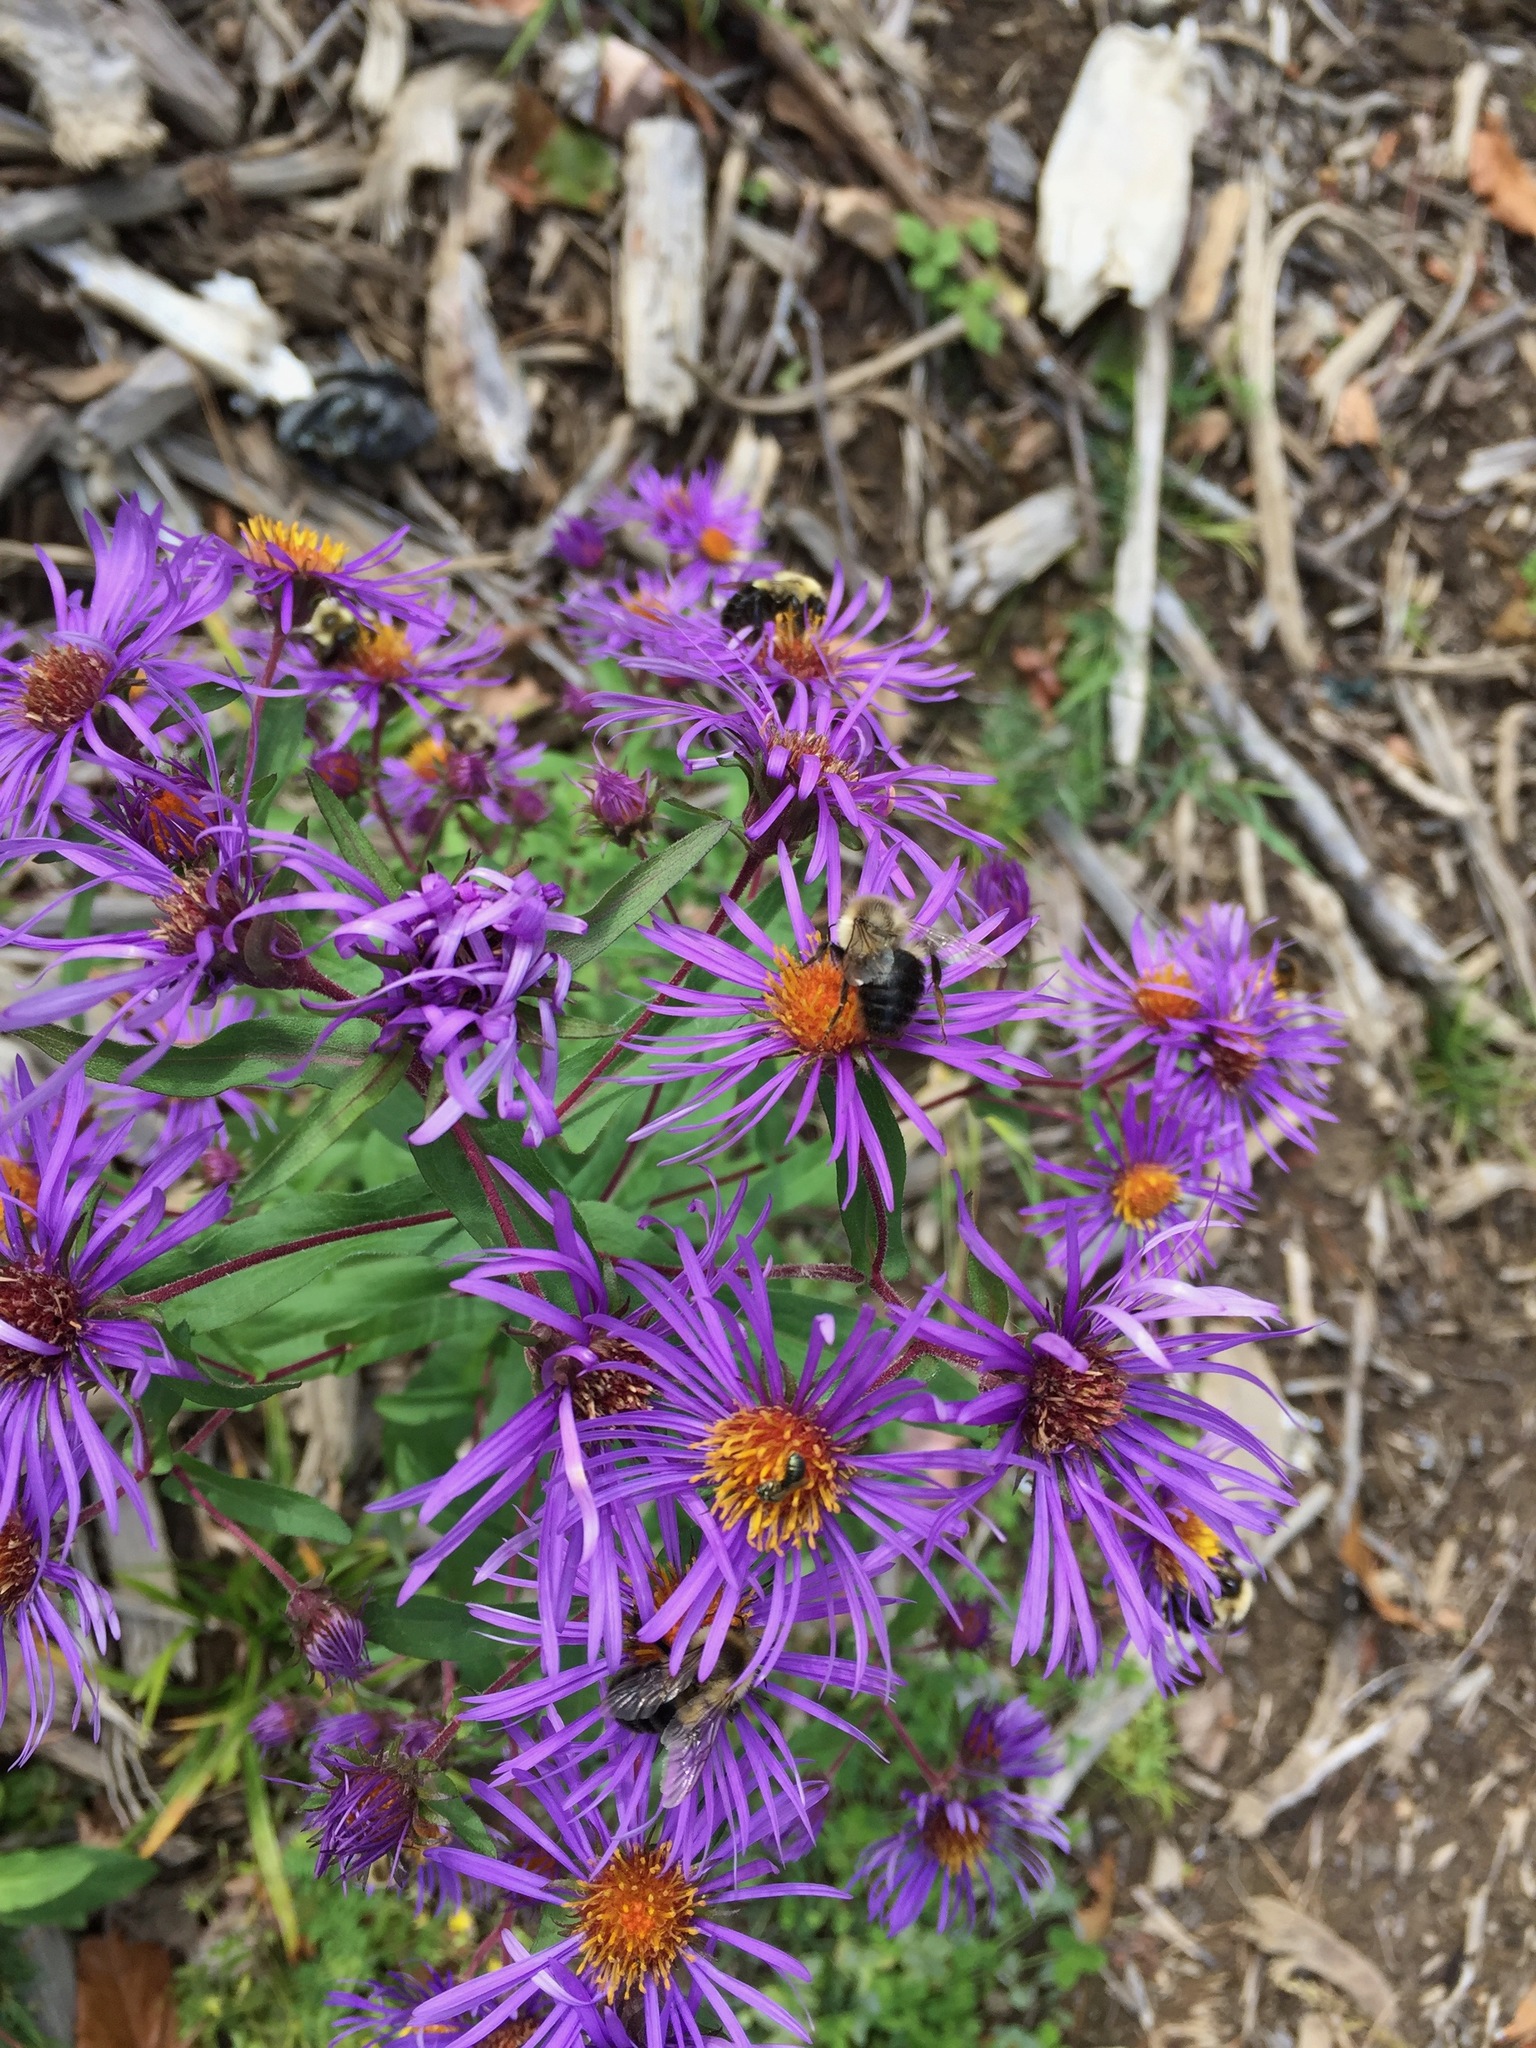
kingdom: Animalia
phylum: Arthropoda
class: Insecta
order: Hymenoptera
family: Apidae
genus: Bombus
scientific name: Bombus impatiens
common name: Common eastern bumble bee
